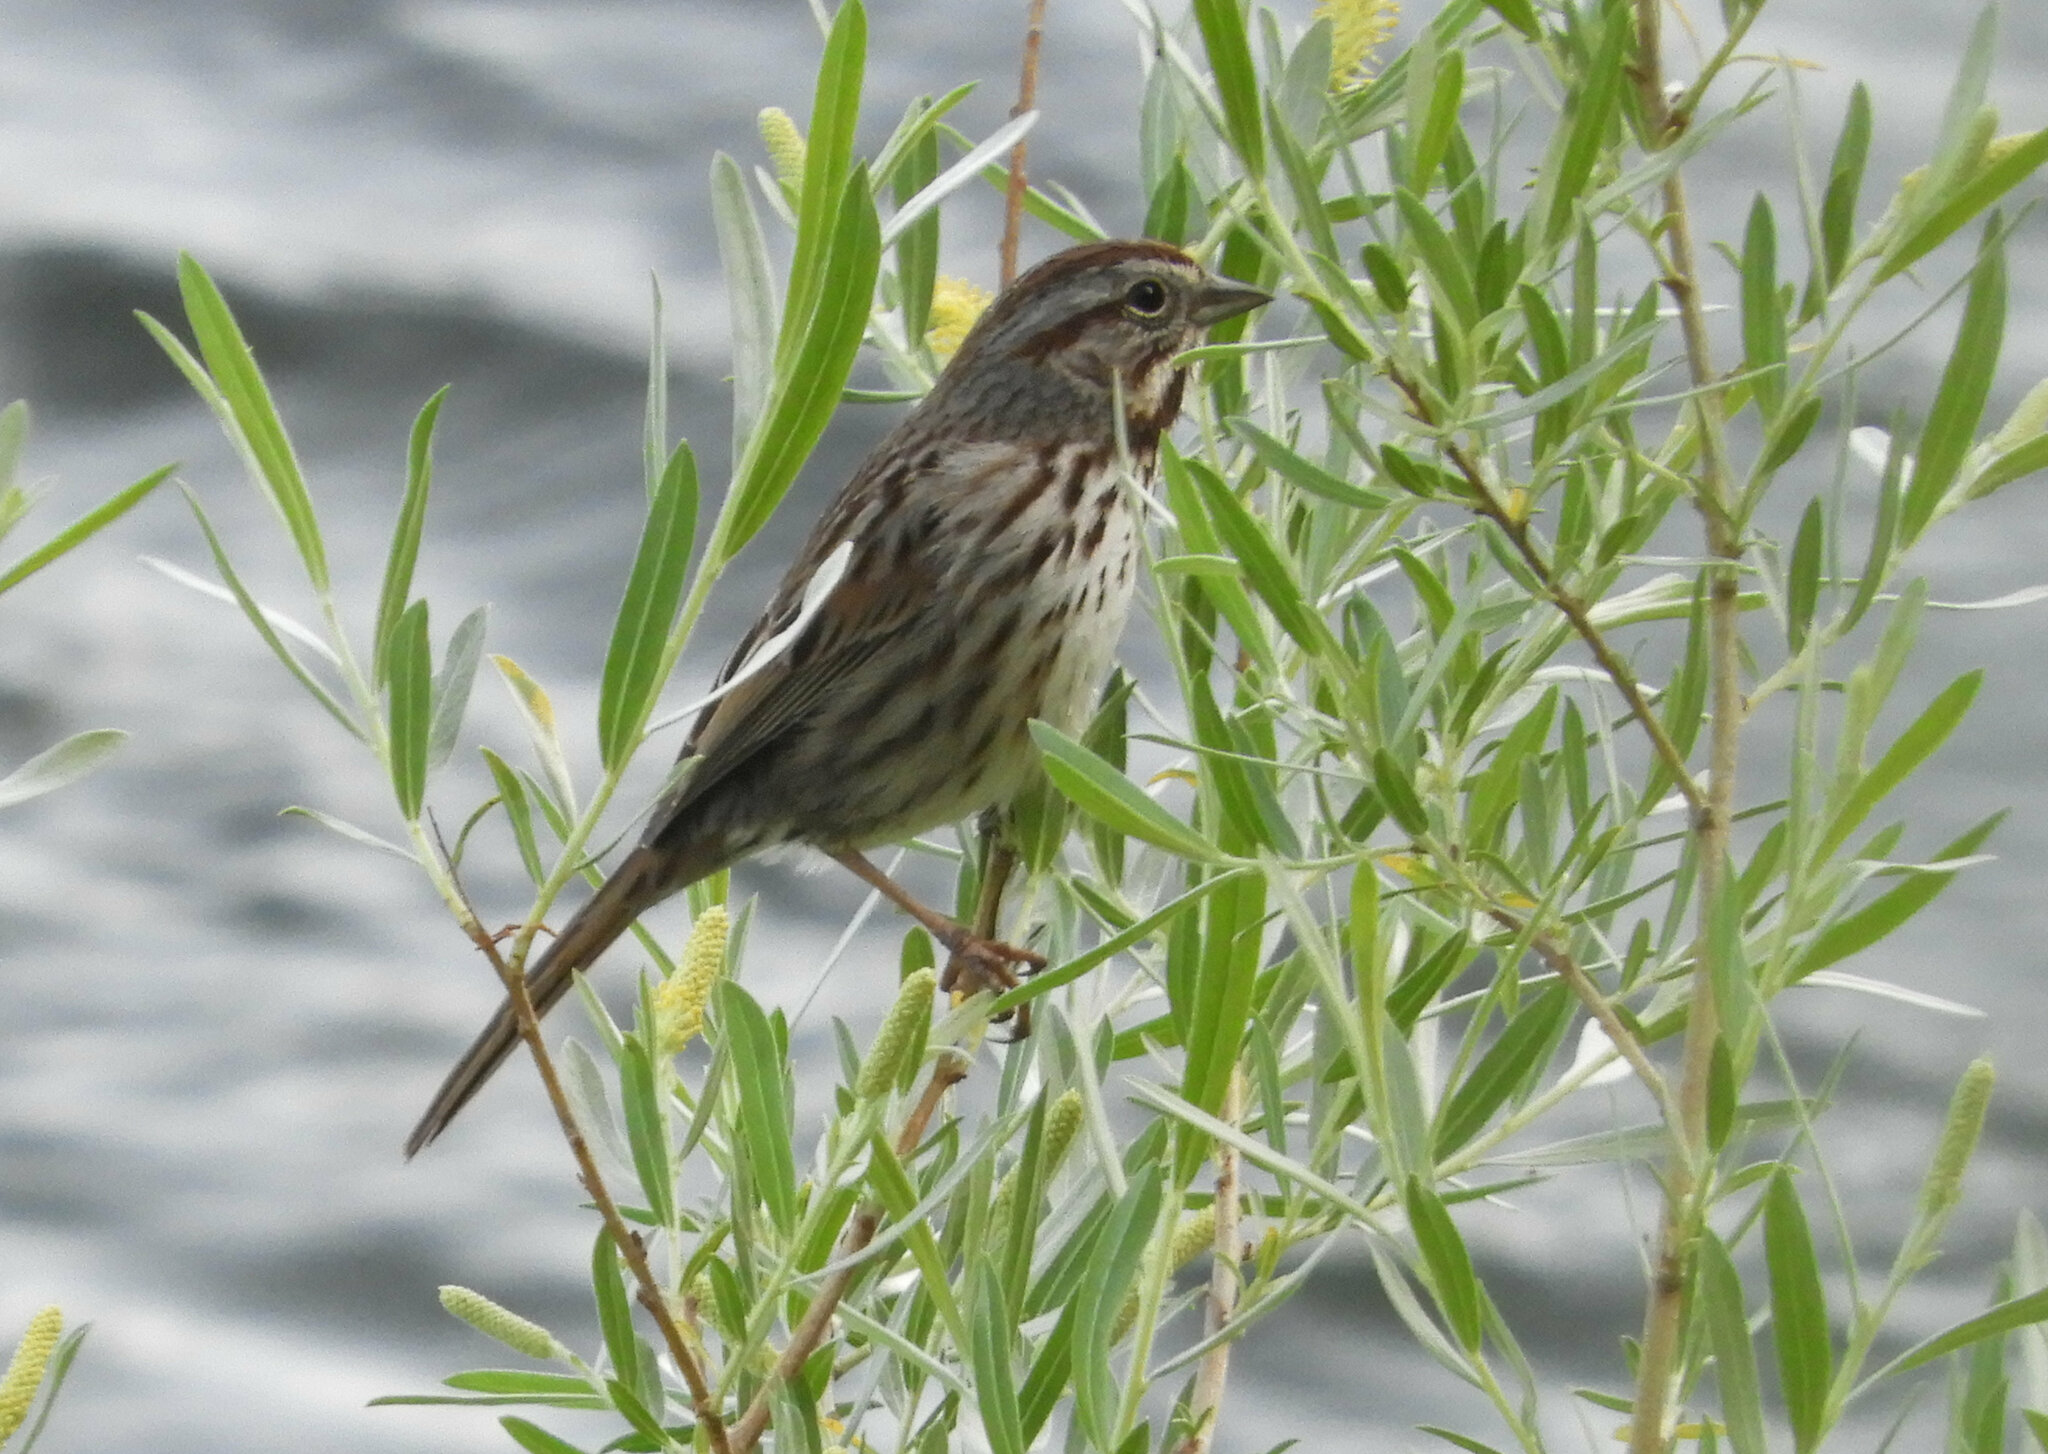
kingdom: Animalia
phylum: Chordata
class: Aves
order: Passeriformes
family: Passerellidae
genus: Melospiza
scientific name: Melospiza melodia
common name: Song sparrow
